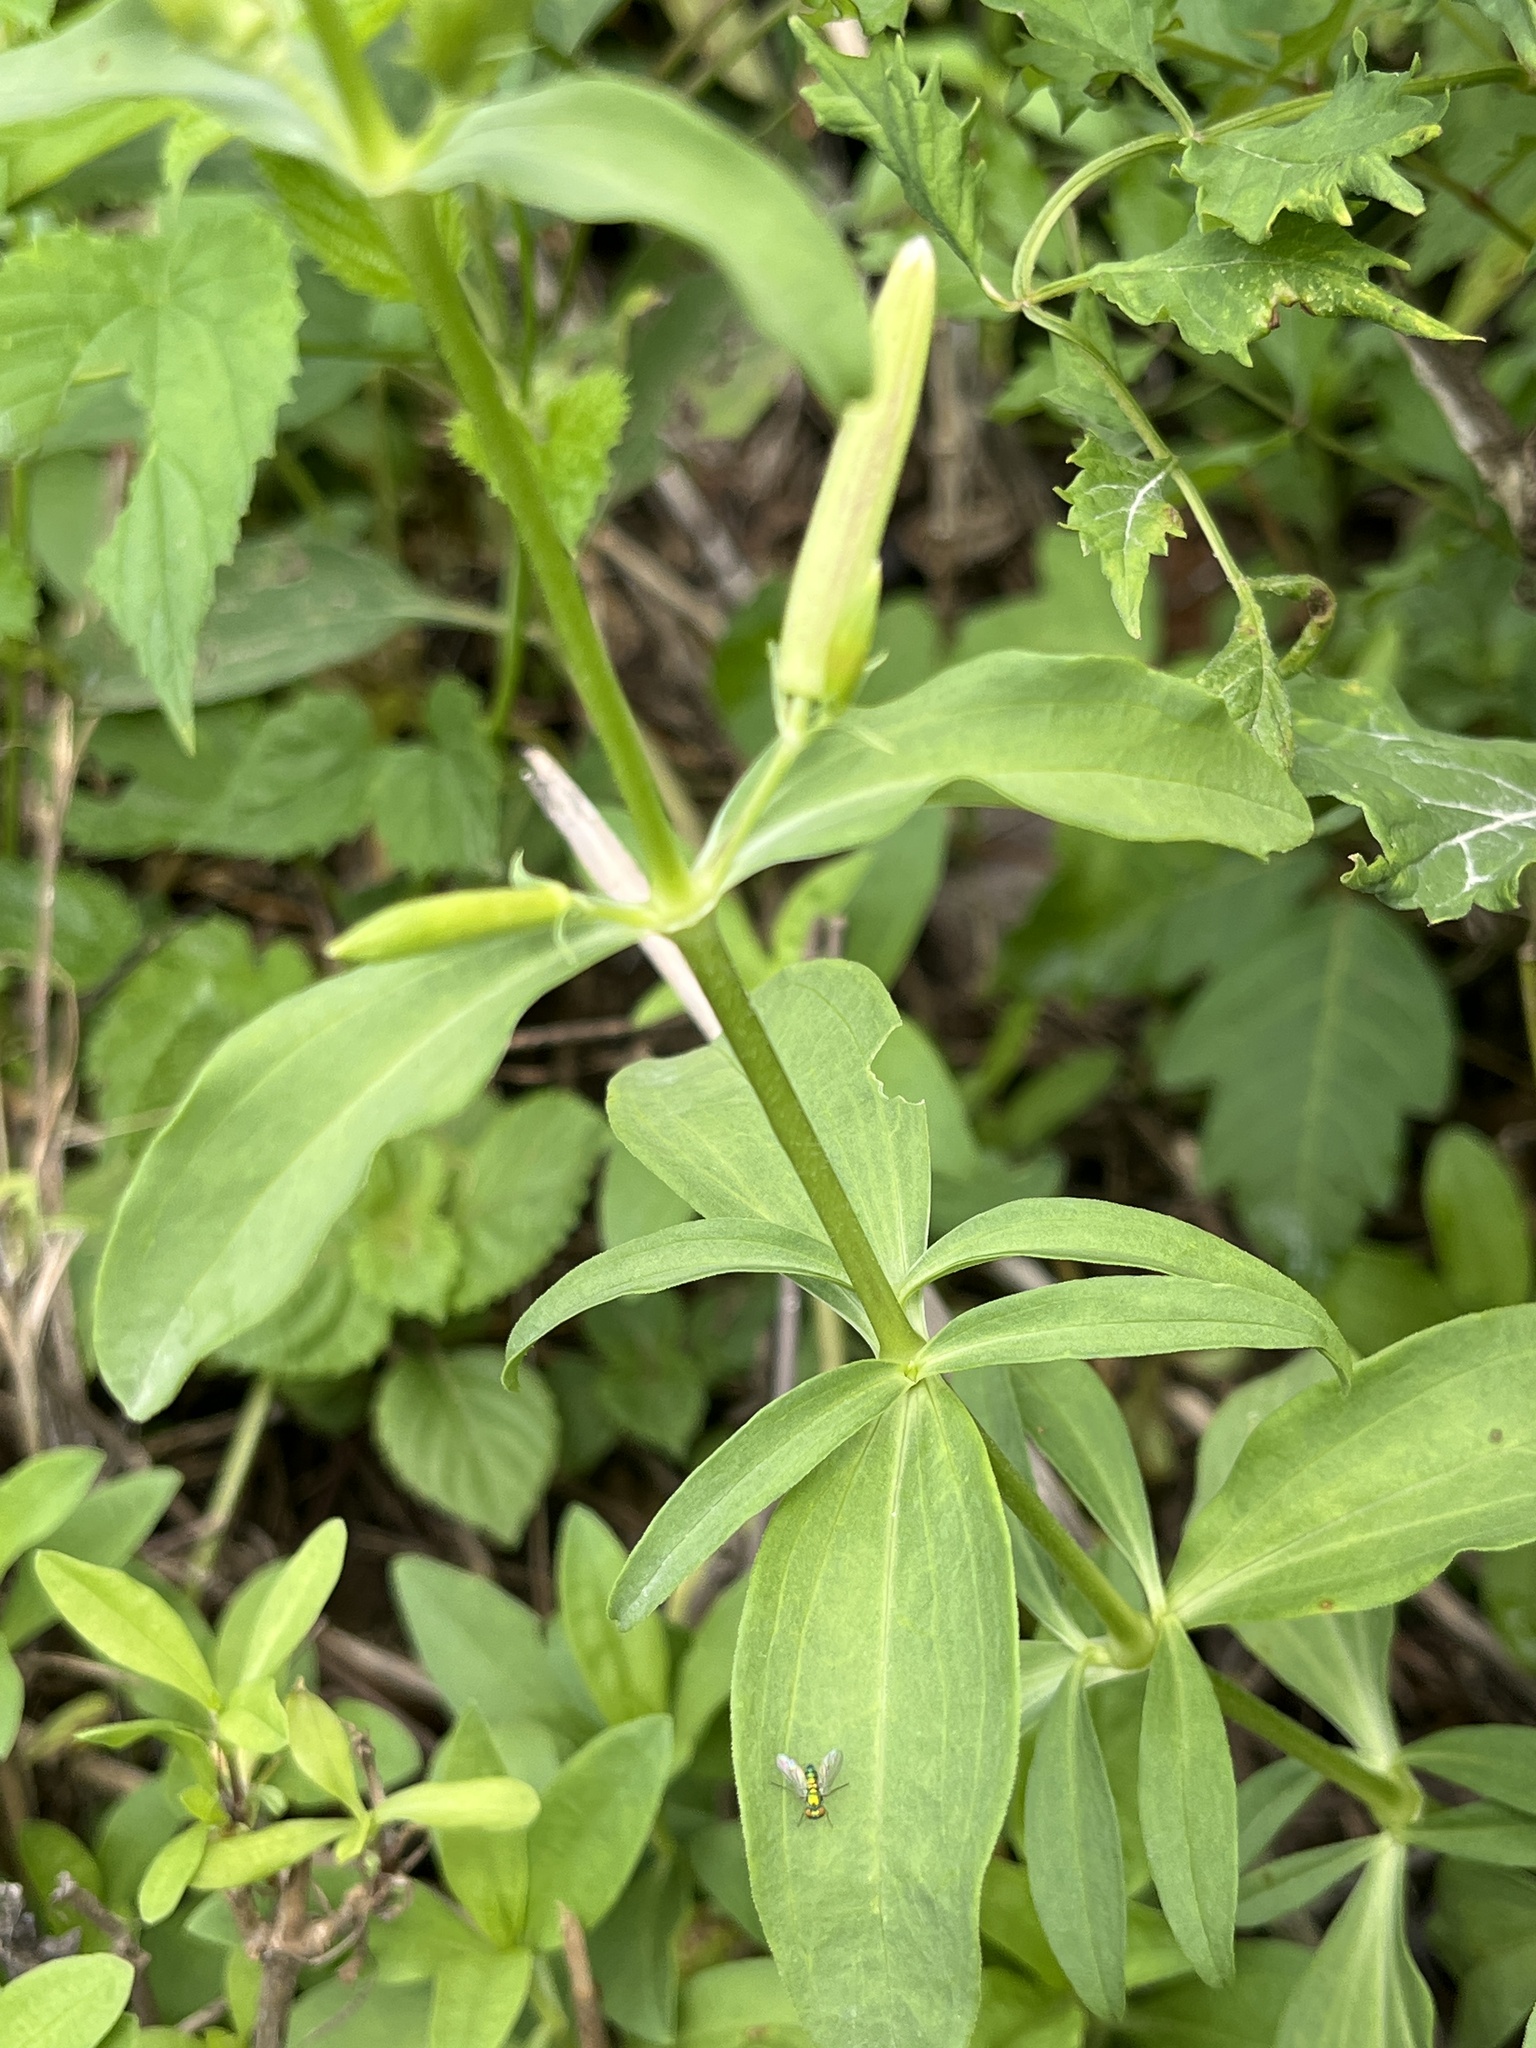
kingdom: Plantae
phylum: Tracheophyta
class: Magnoliopsida
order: Caryophyllales
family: Caryophyllaceae
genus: Saponaria
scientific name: Saponaria officinalis
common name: Soapwort
